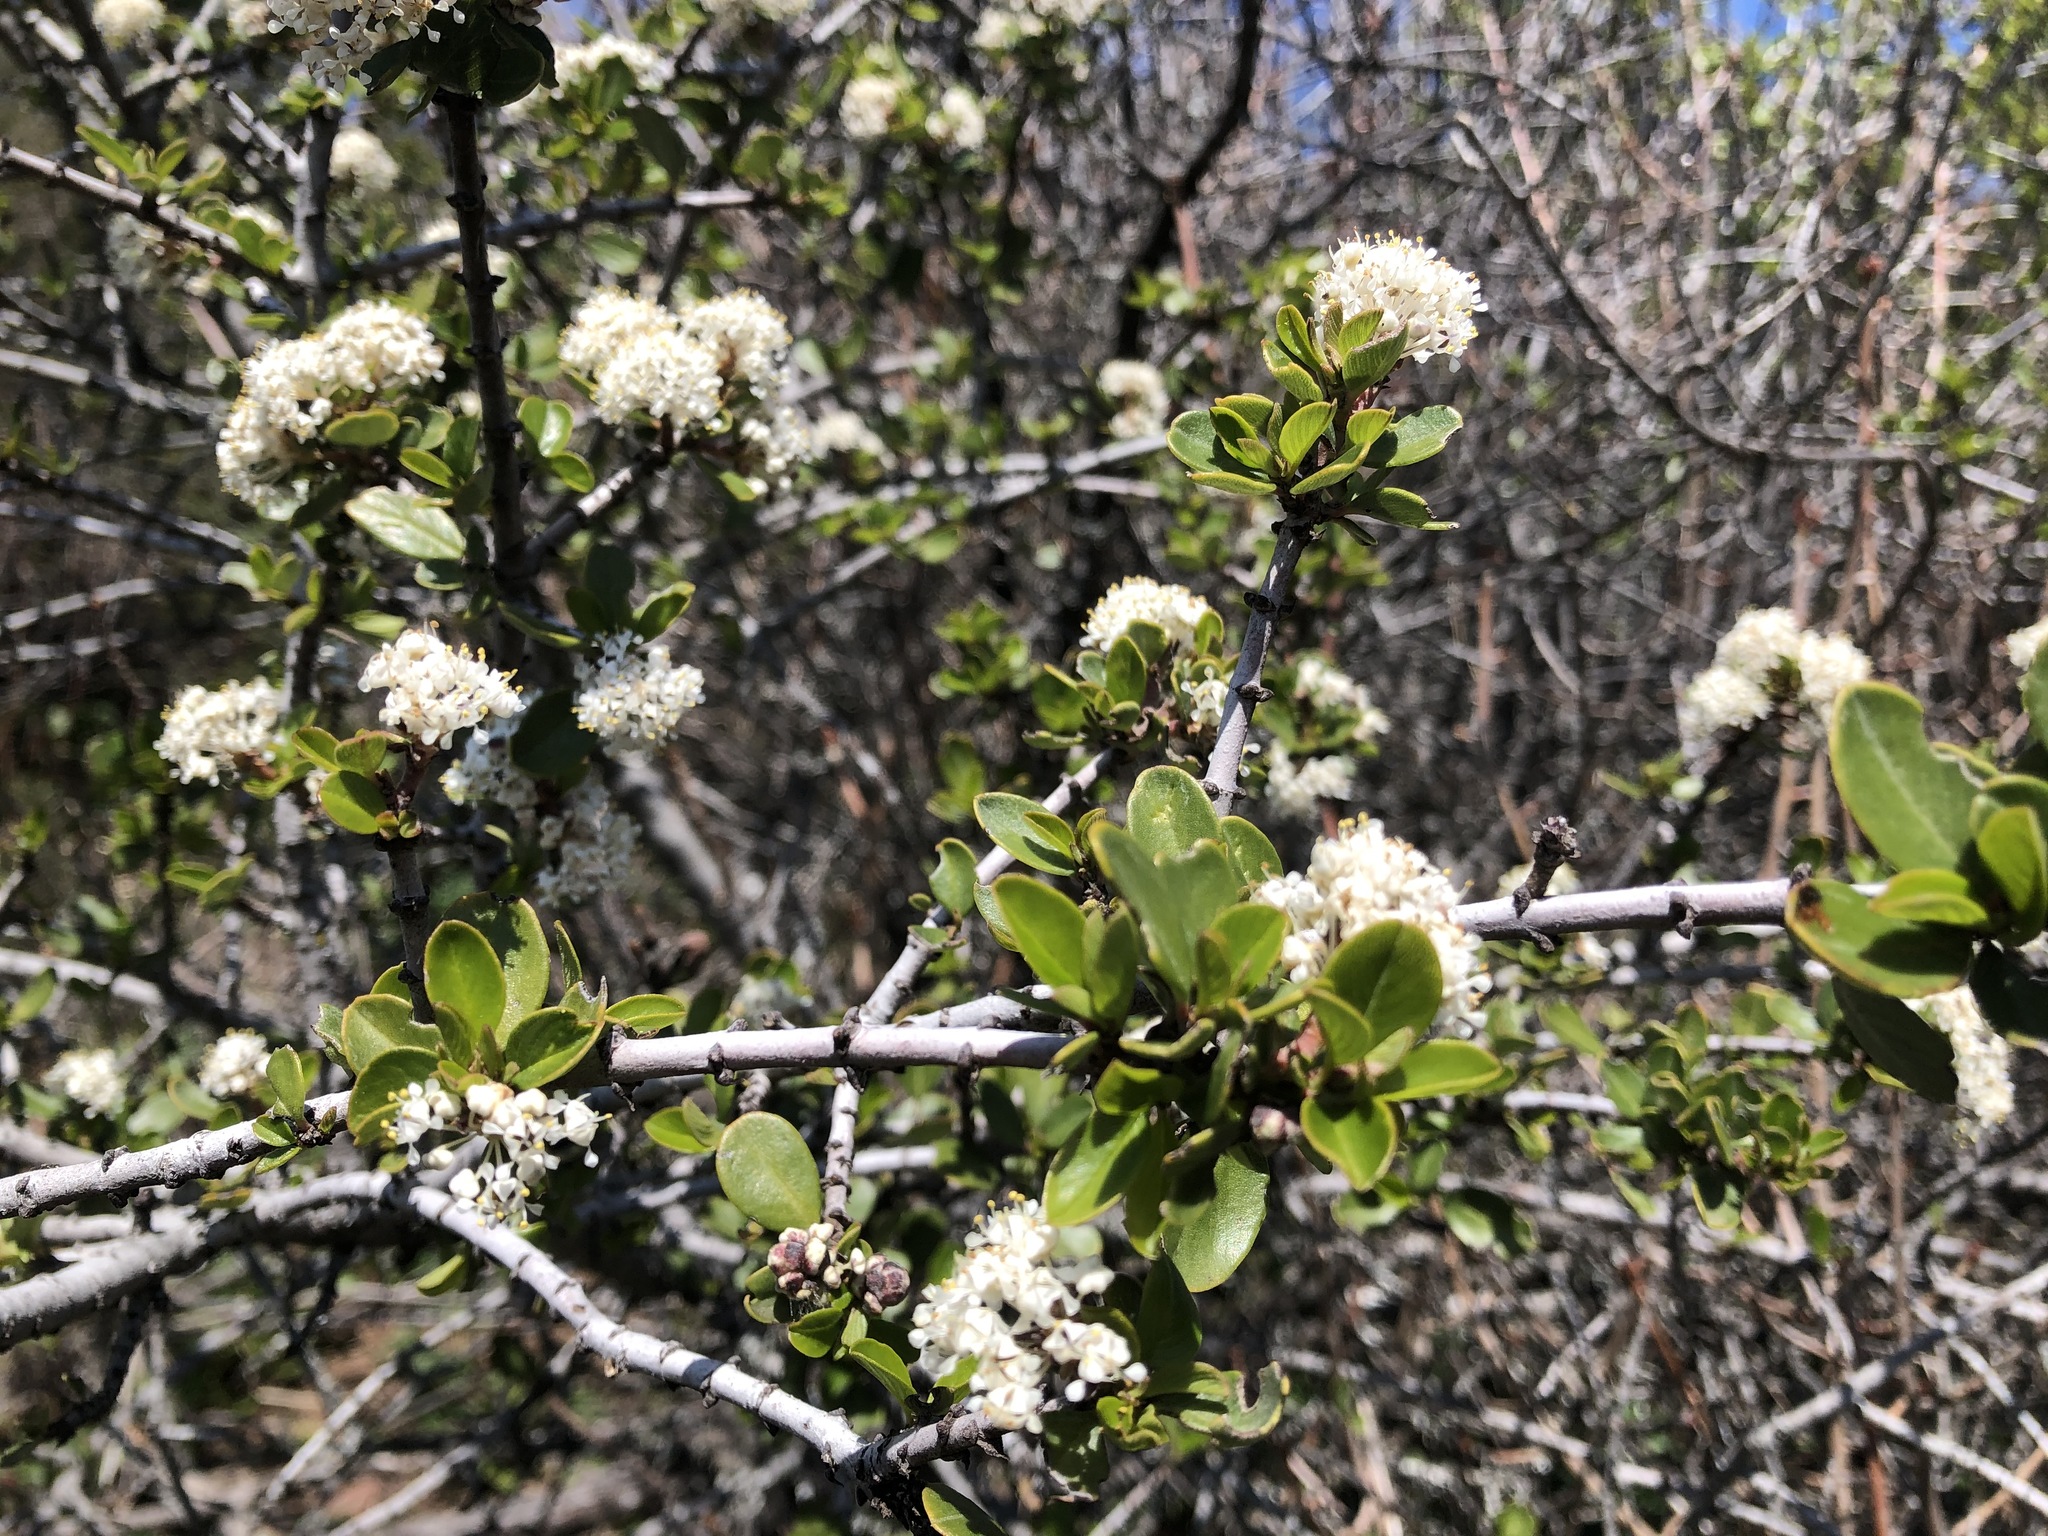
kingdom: Plantae
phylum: Tracheophyta
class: Magnoliopsida
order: Rosales
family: Rhamnaceae
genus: Ceanothus
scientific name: Ceanothus cuneatus
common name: Cuneate ceanothus
